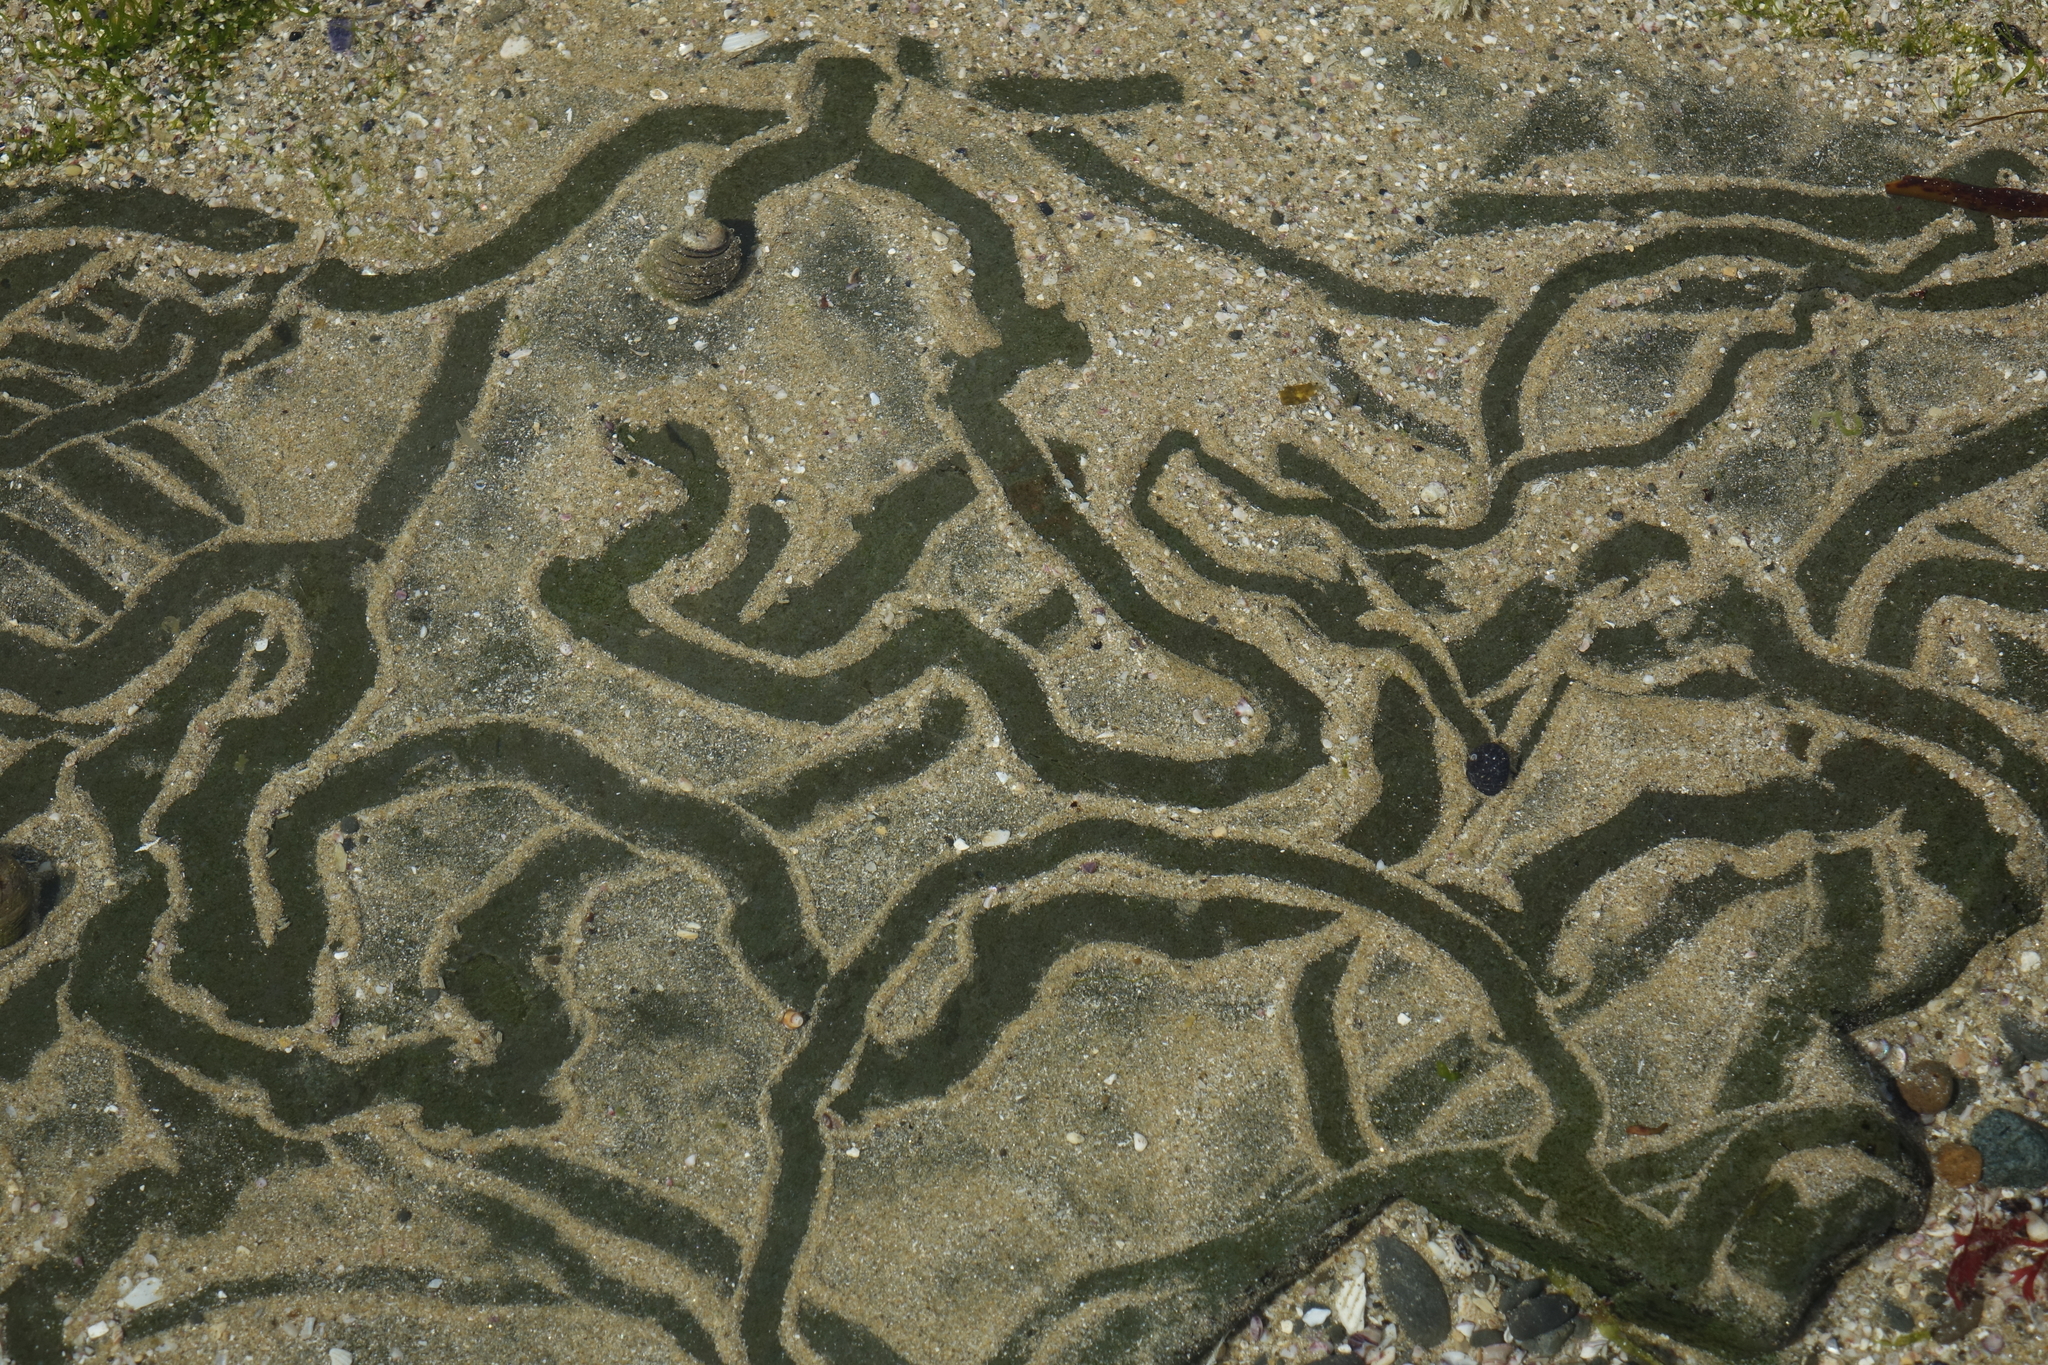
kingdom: Animalia
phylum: Mollusca
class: Gastropoda
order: Trochida
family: Trochidae
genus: Diloma
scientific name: Diloma aethiops
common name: Scorched monodont
